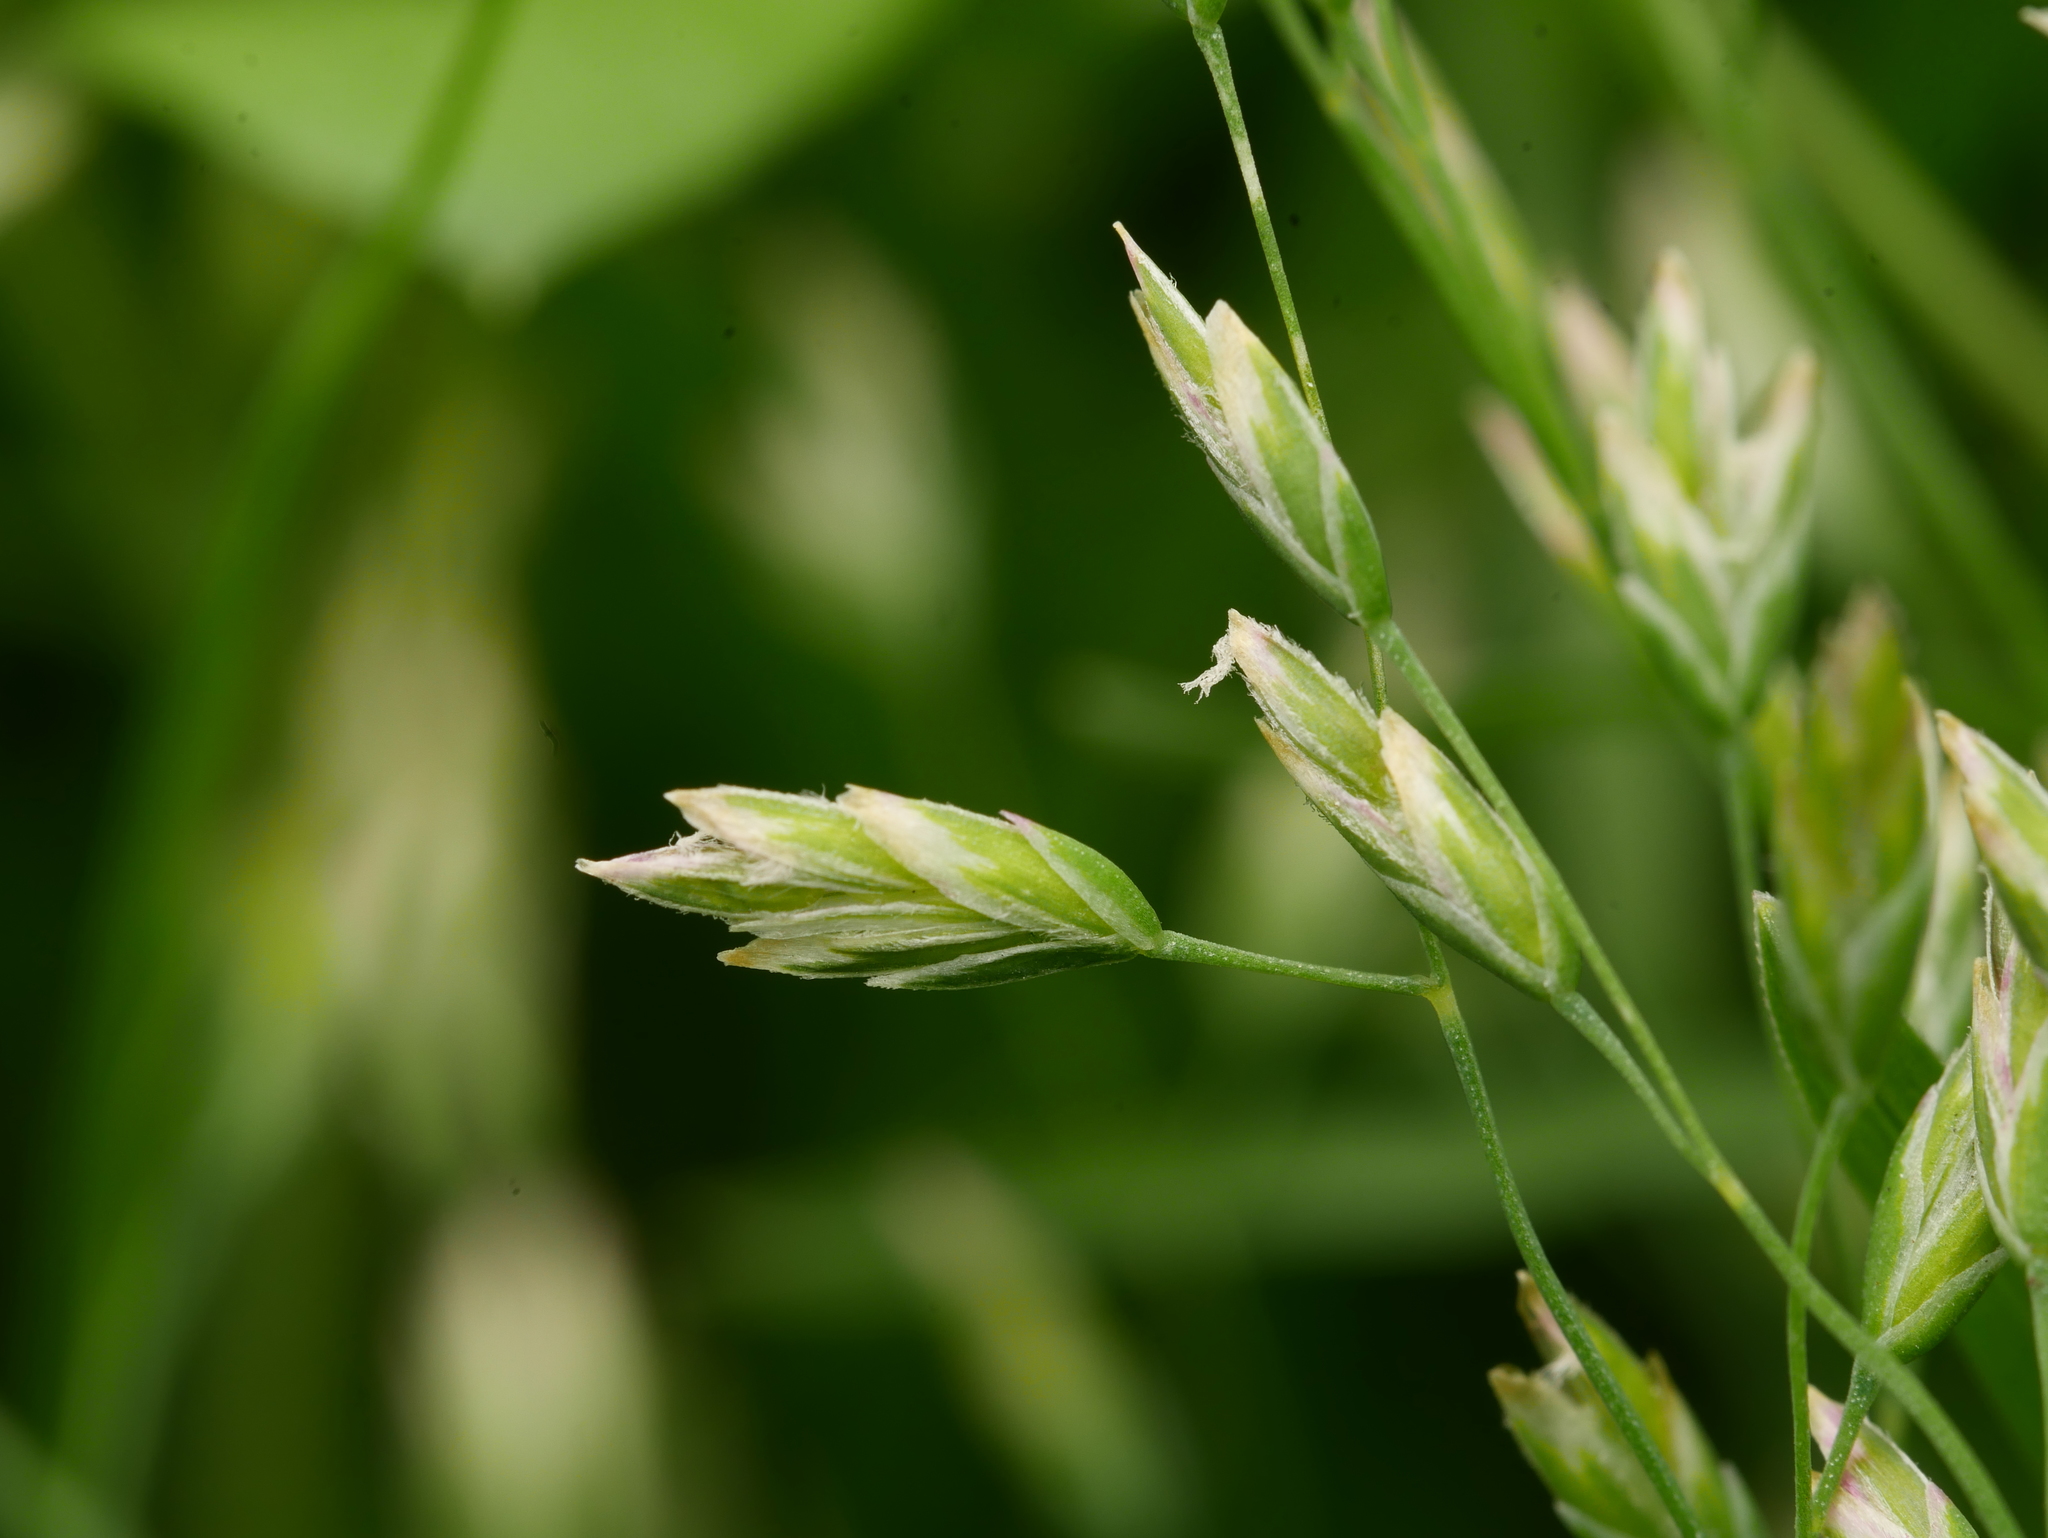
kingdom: Plantae
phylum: Tracheophyta
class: Liliopsida
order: Poales
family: Poaceae
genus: Poa
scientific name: Poa annua
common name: Annual bluegrass
